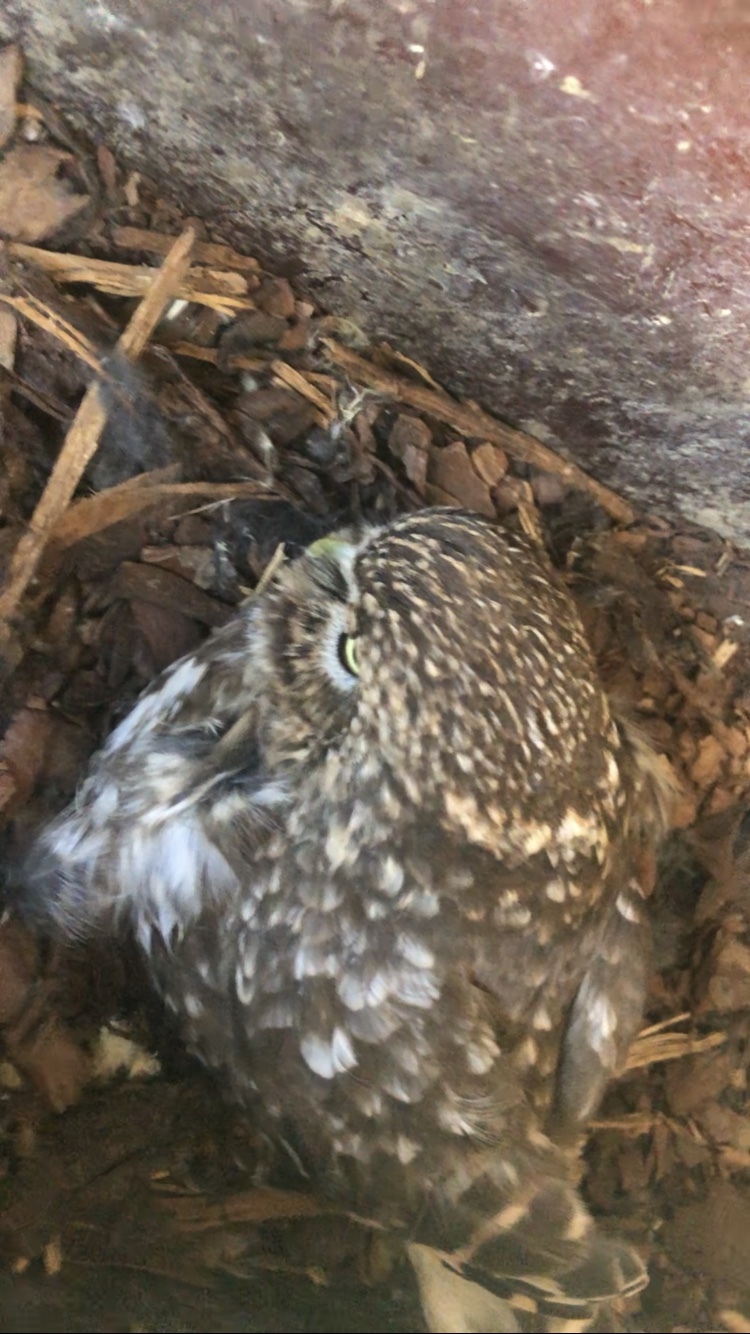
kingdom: Animalia
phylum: Chordata
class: Aves
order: Strigiformes
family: Strigidae
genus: Athene
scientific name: Athene noctua
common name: Little owl
